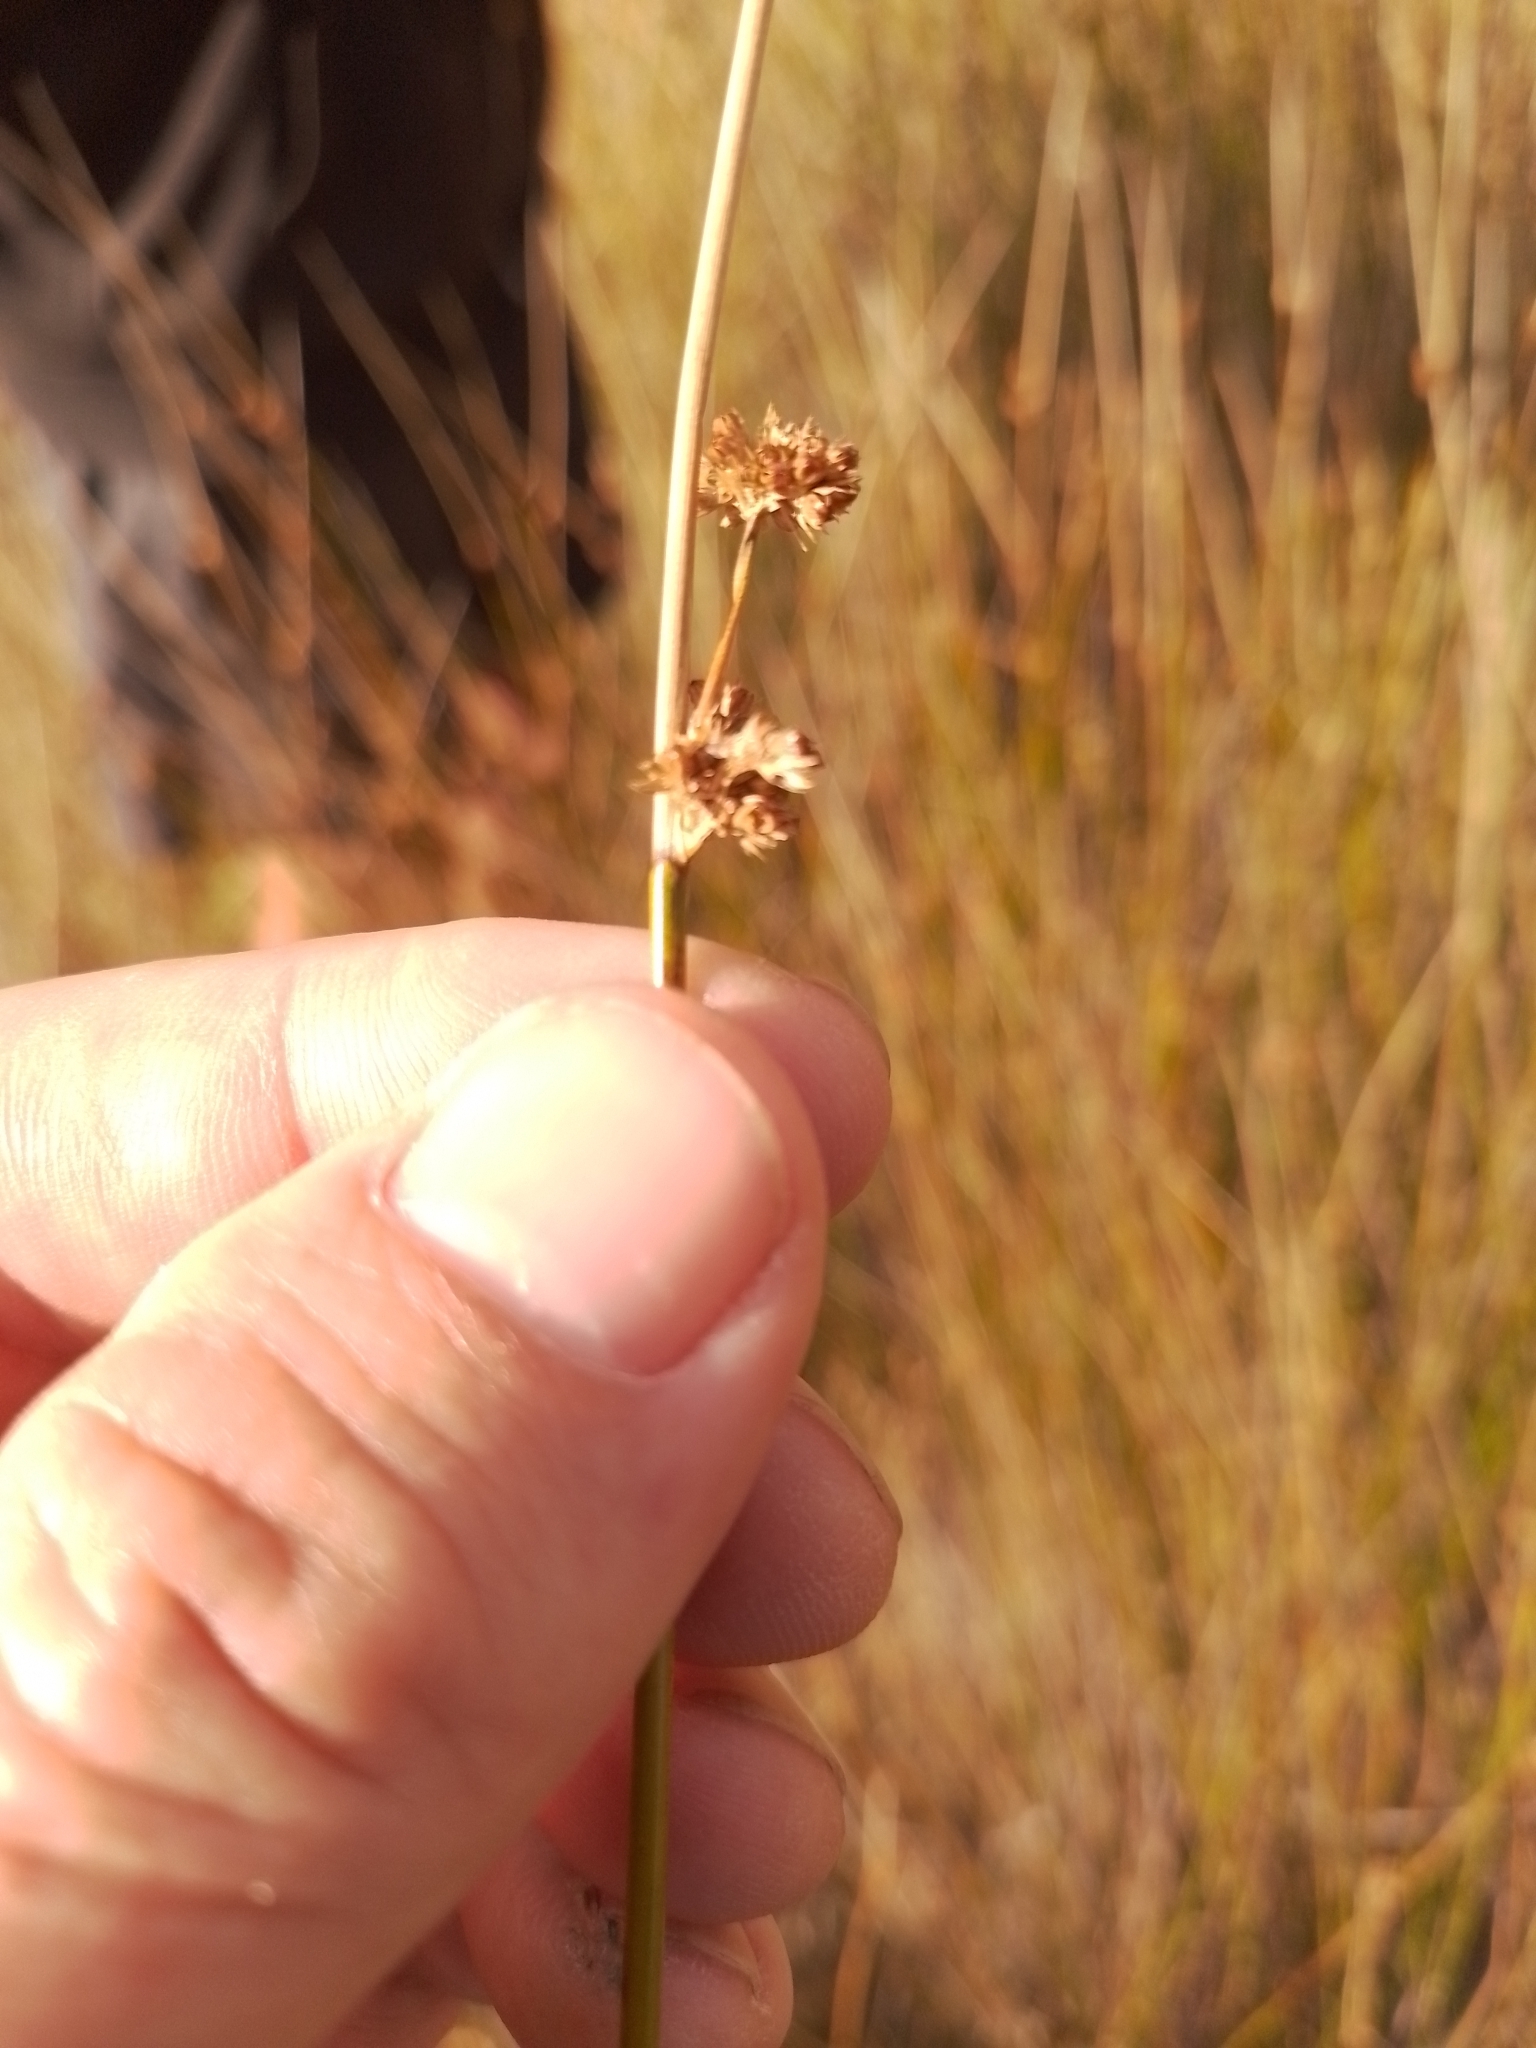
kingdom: Plantae
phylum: Tracheophyta
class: Liliopsida
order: Poales
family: Juncaceae
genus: Juncus
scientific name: Juncus edgariae
